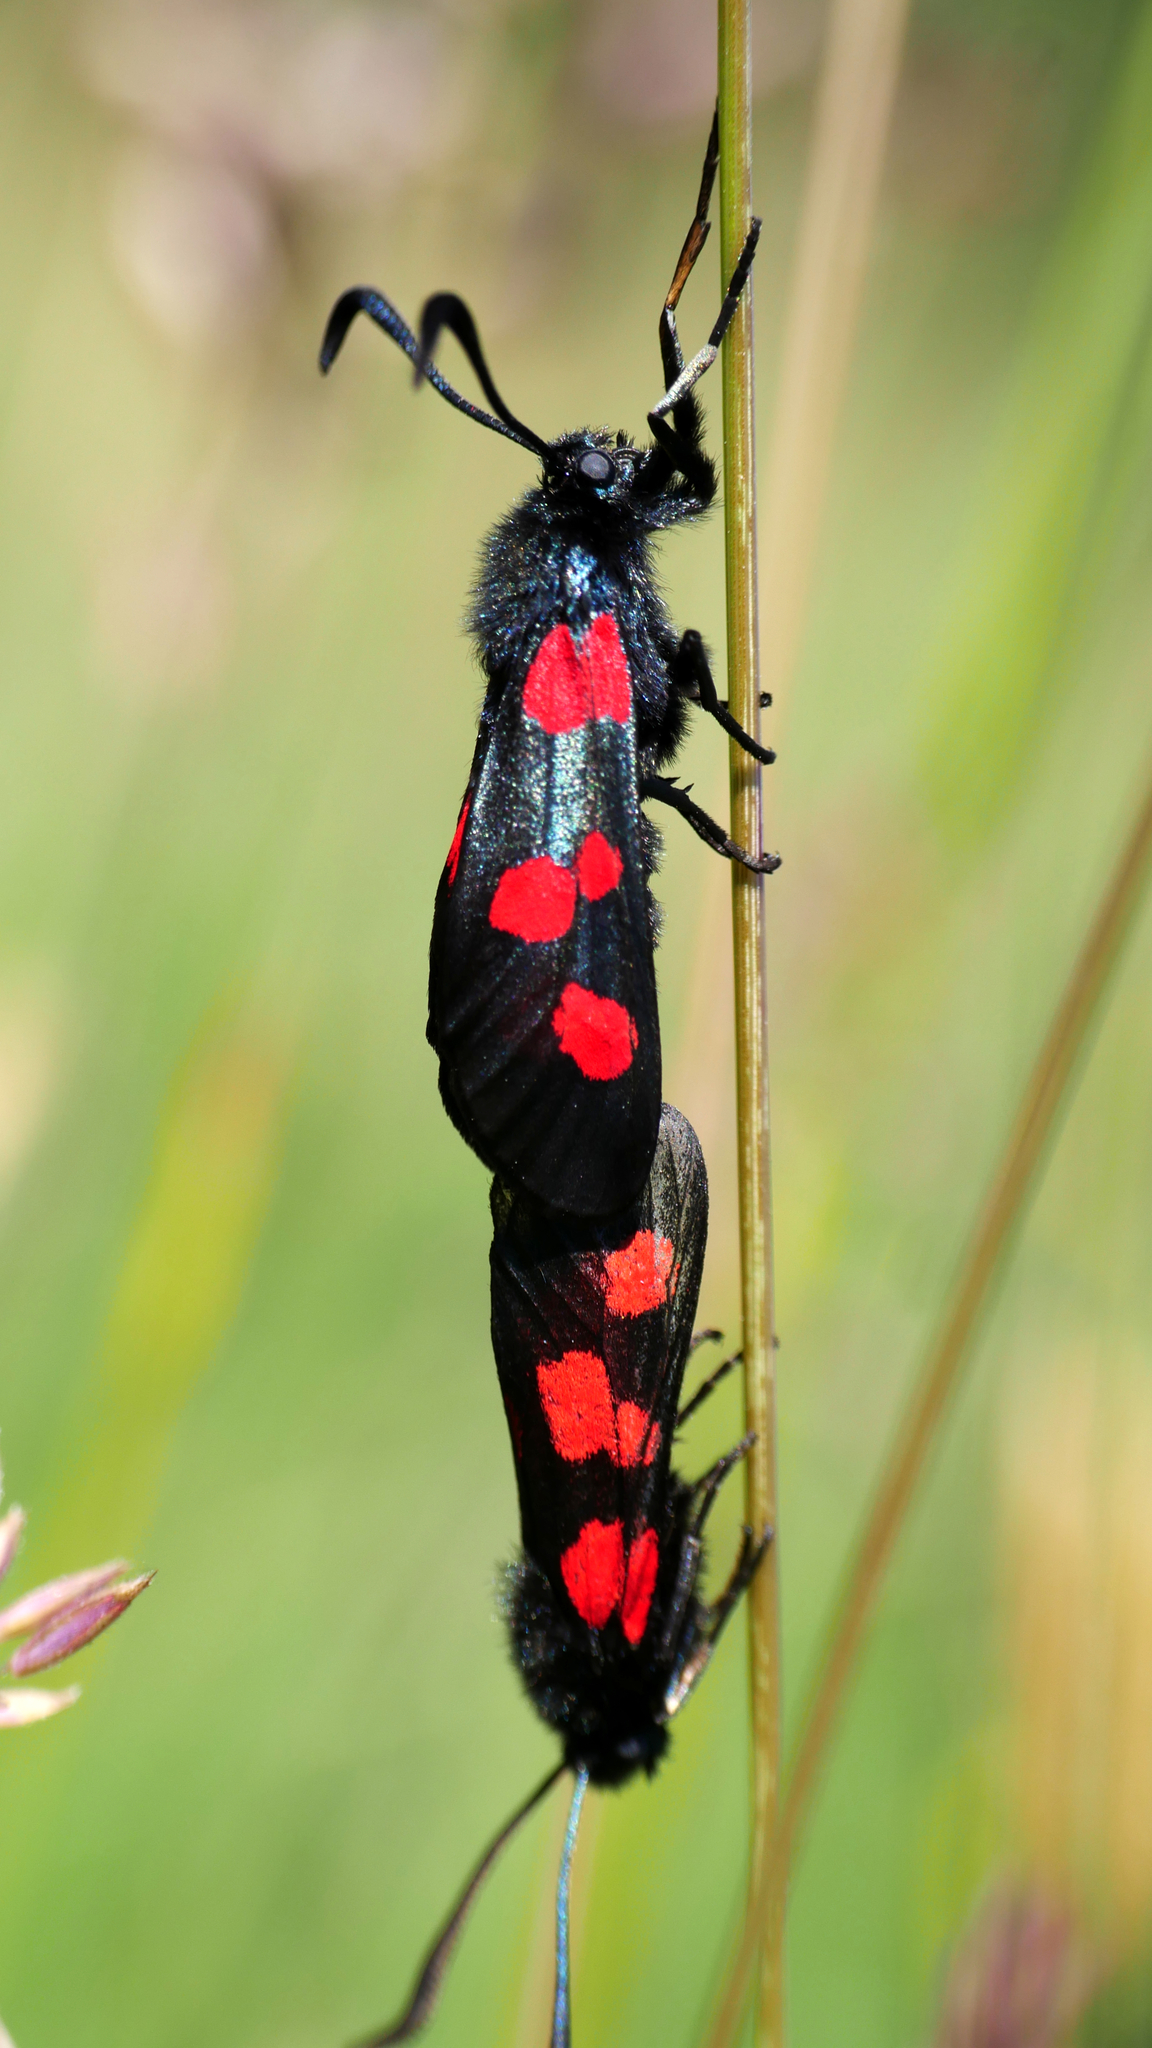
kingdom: Animalia
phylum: Arthropoda
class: Insecta
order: Lepidoptera
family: Zygaenidae
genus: Zygaena
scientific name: Zygaena lonicerae
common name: Narrow-bordered five-spot burnet
